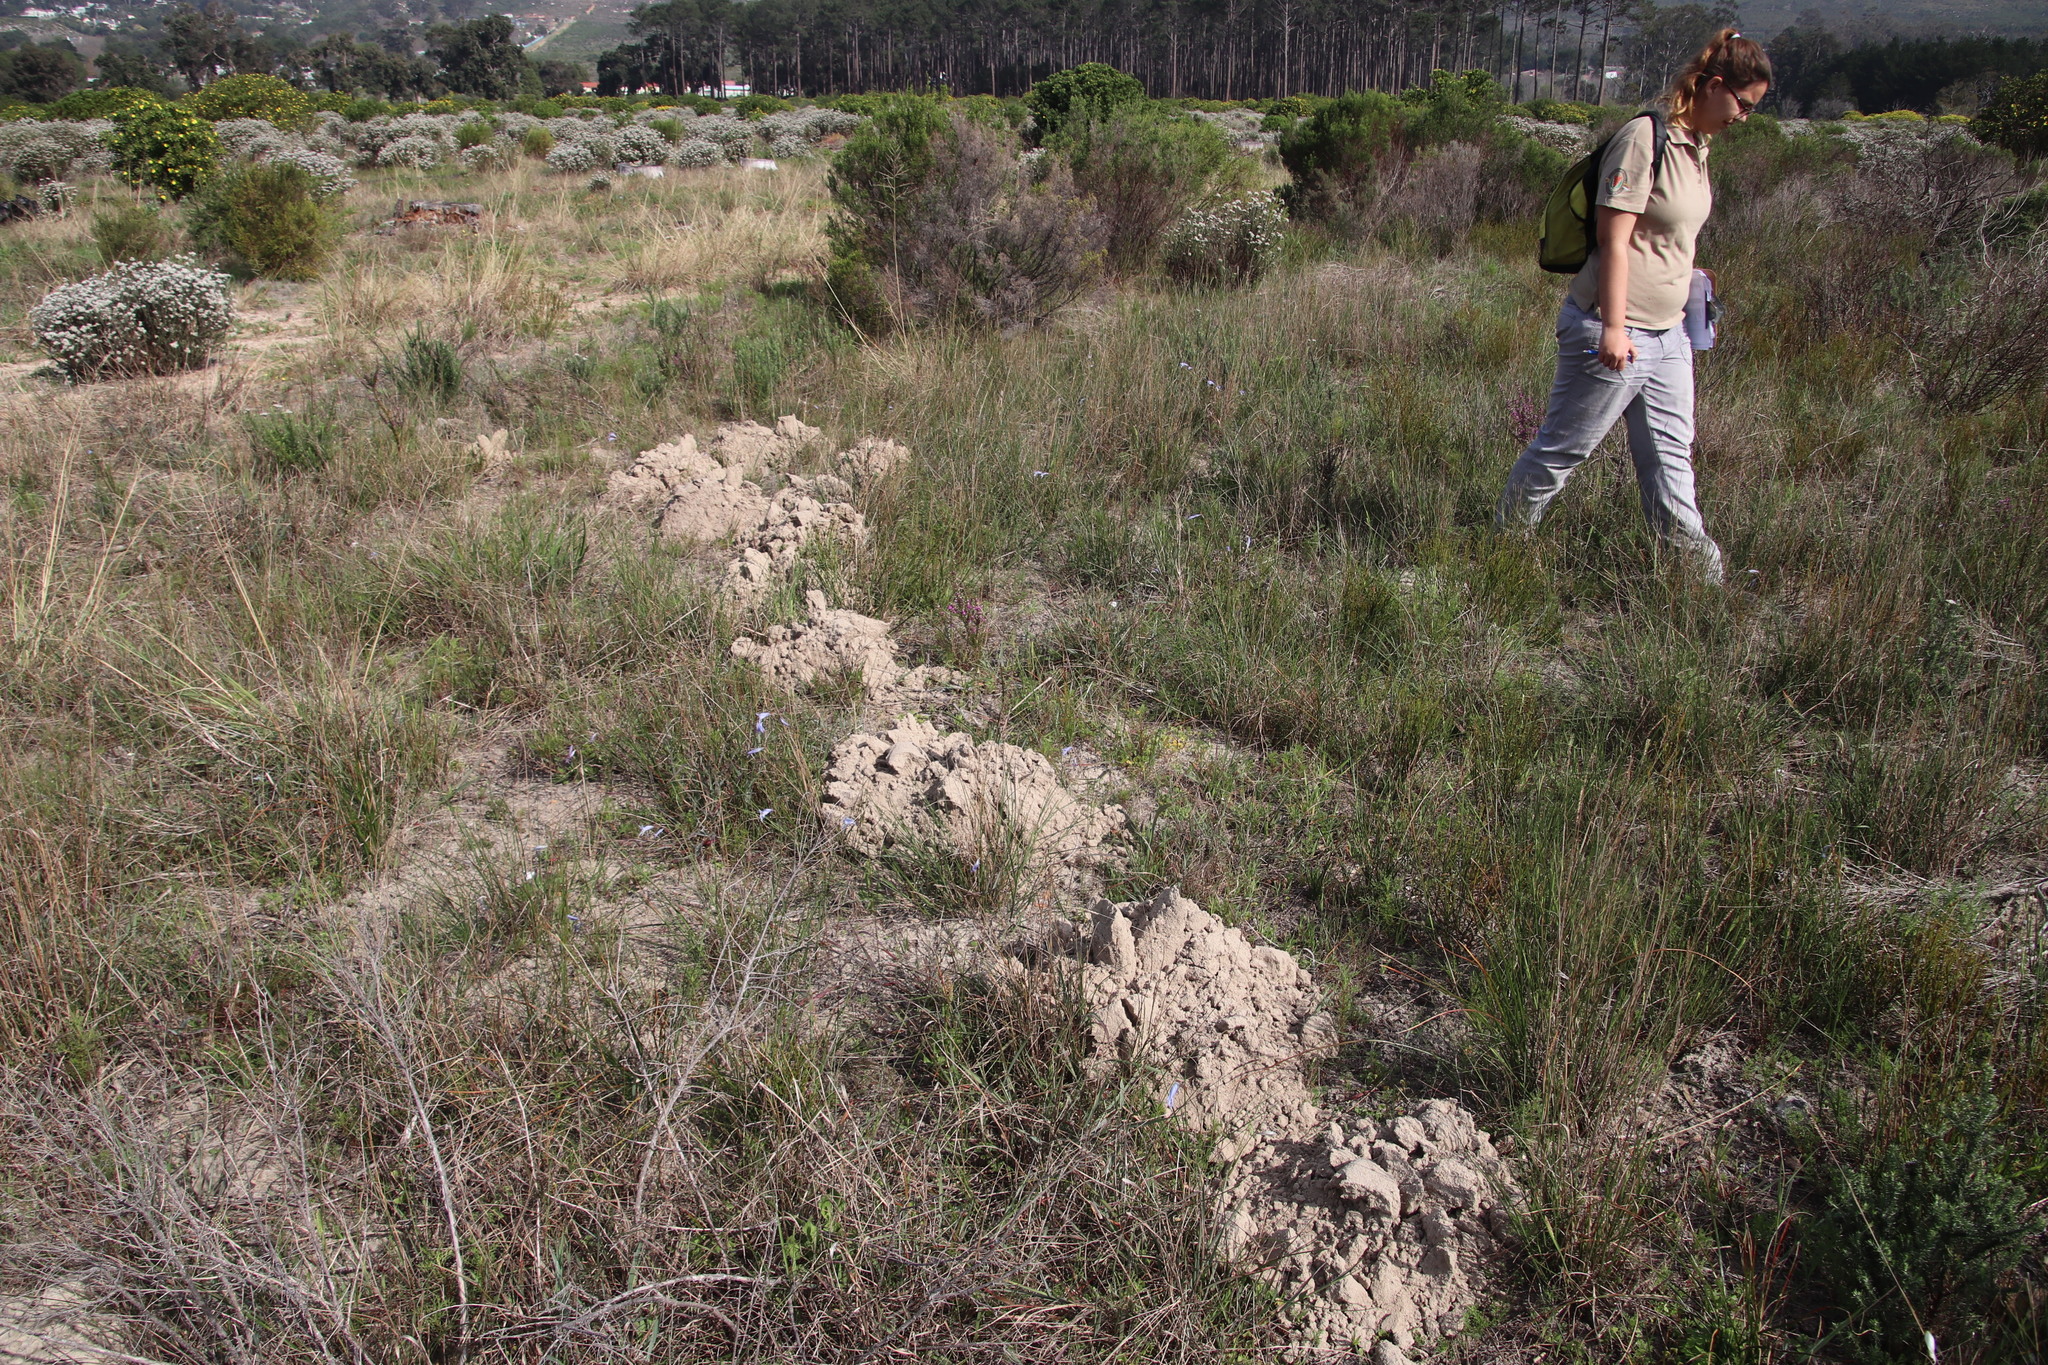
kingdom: Animalia
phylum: Chordata
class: Mammalia
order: Rodentia
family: Bathyergidae
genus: Bathyergus
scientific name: Bathyergus suillus
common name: Cape dune mole rat
